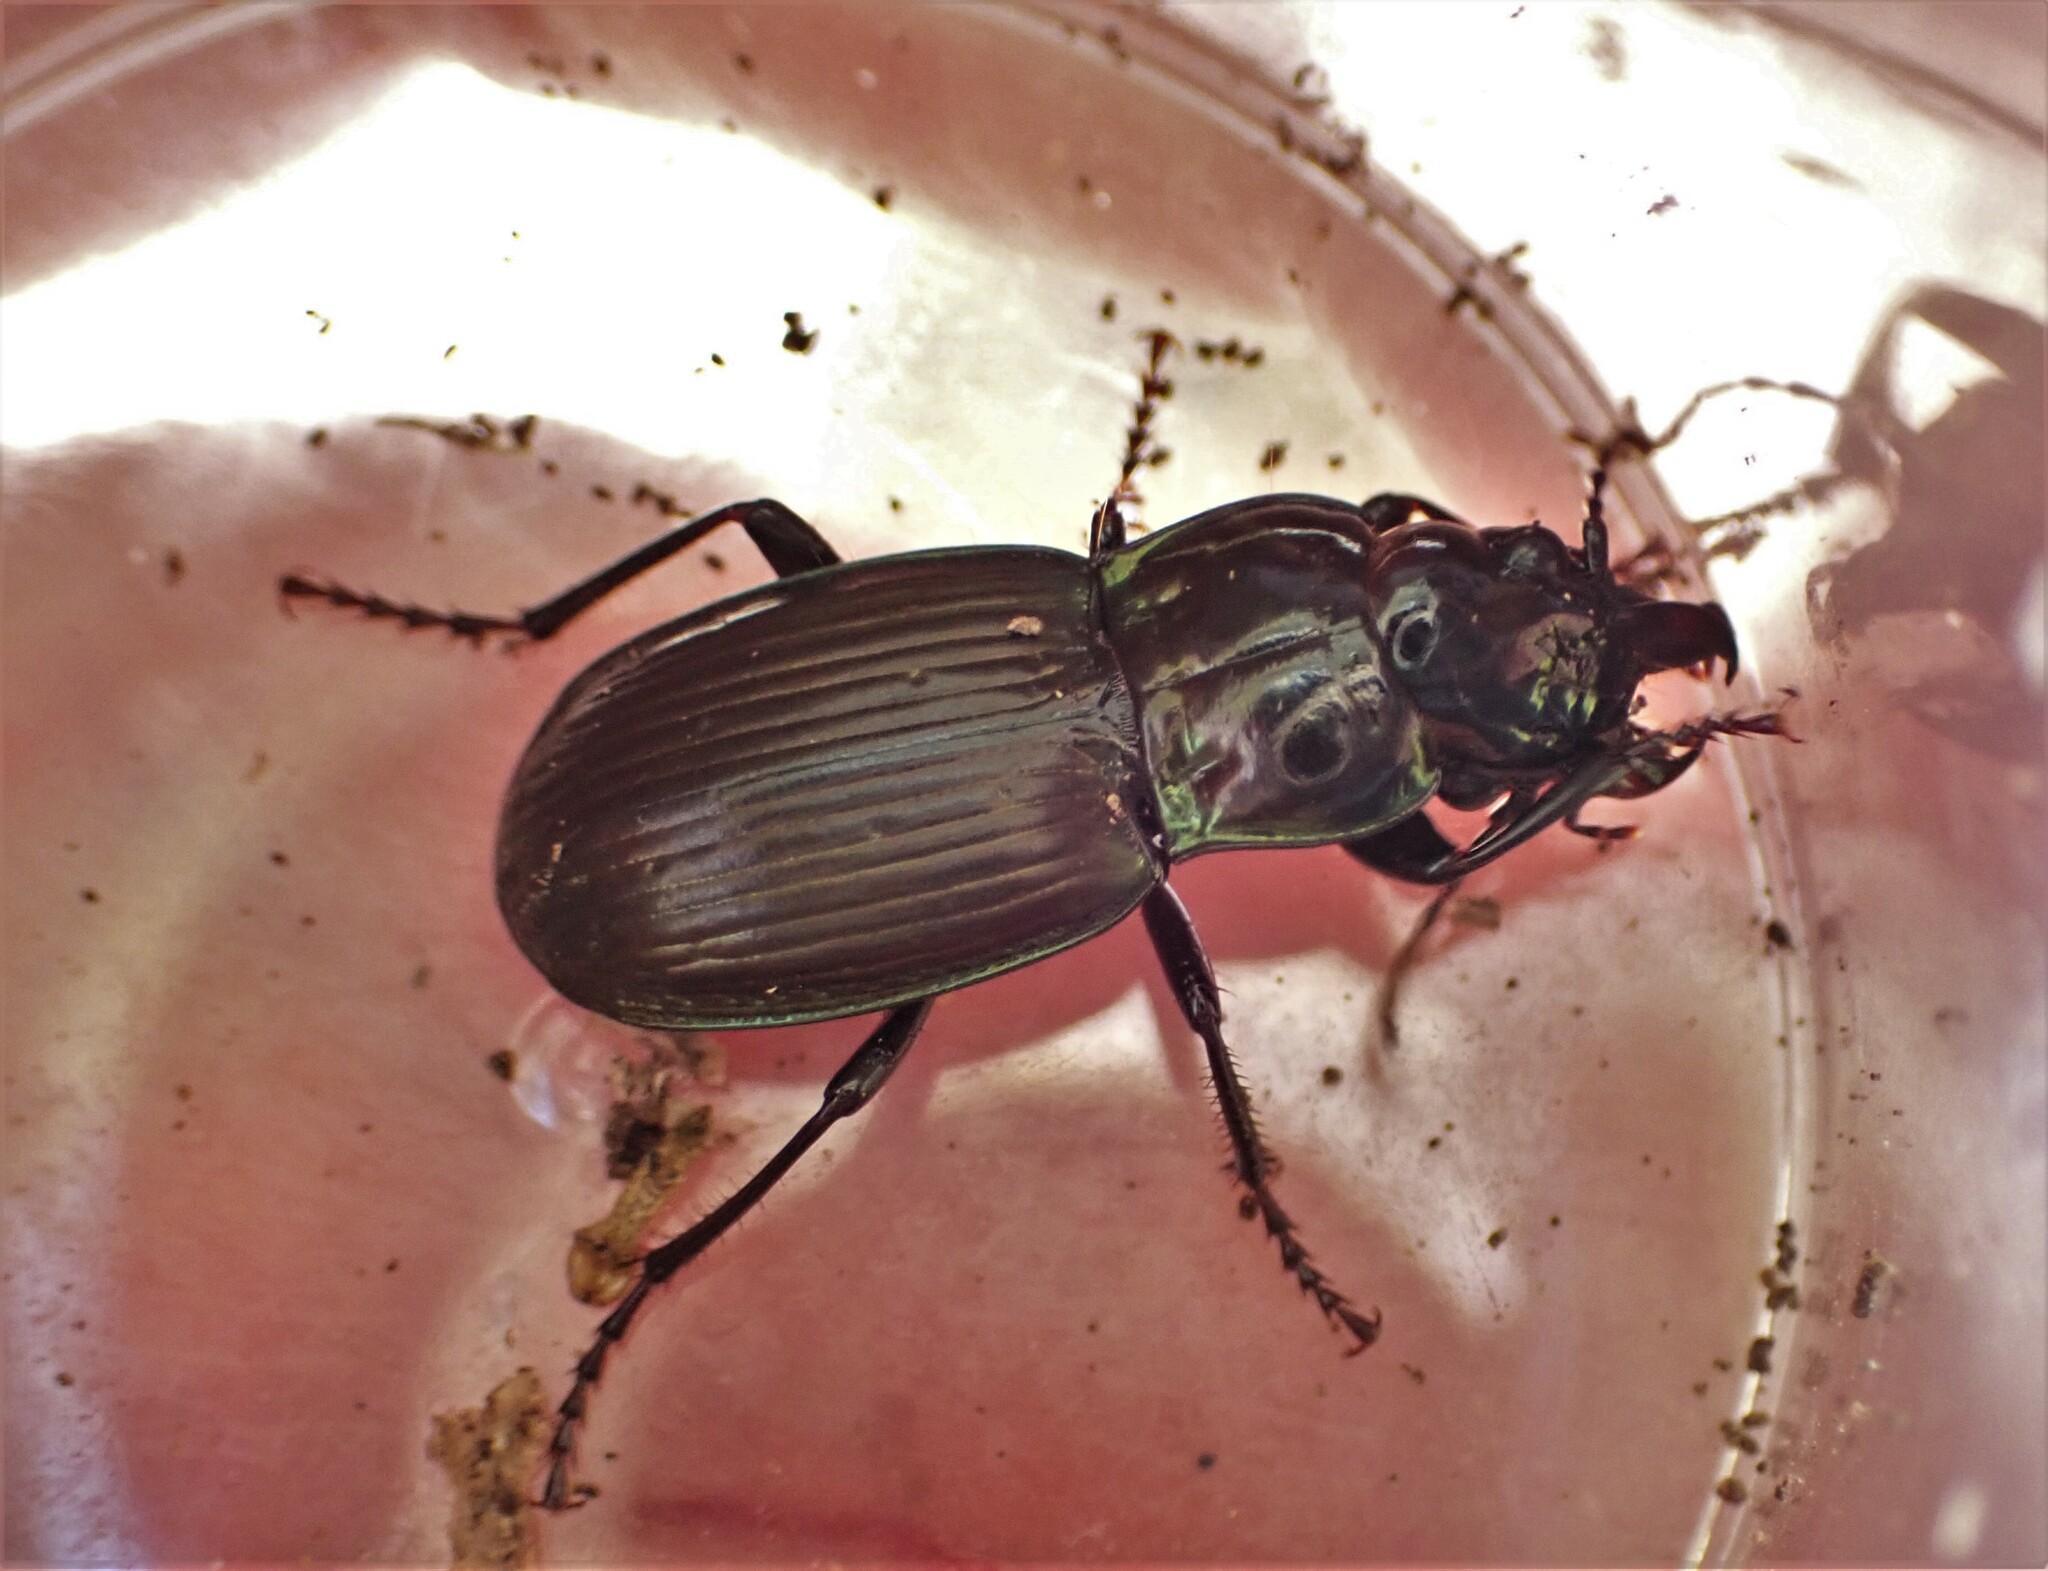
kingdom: Animalia
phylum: Arthropoda
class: Insecta
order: Coleoptera
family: Carabidae
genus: Megadromus
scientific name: Megadromus antarcticus
